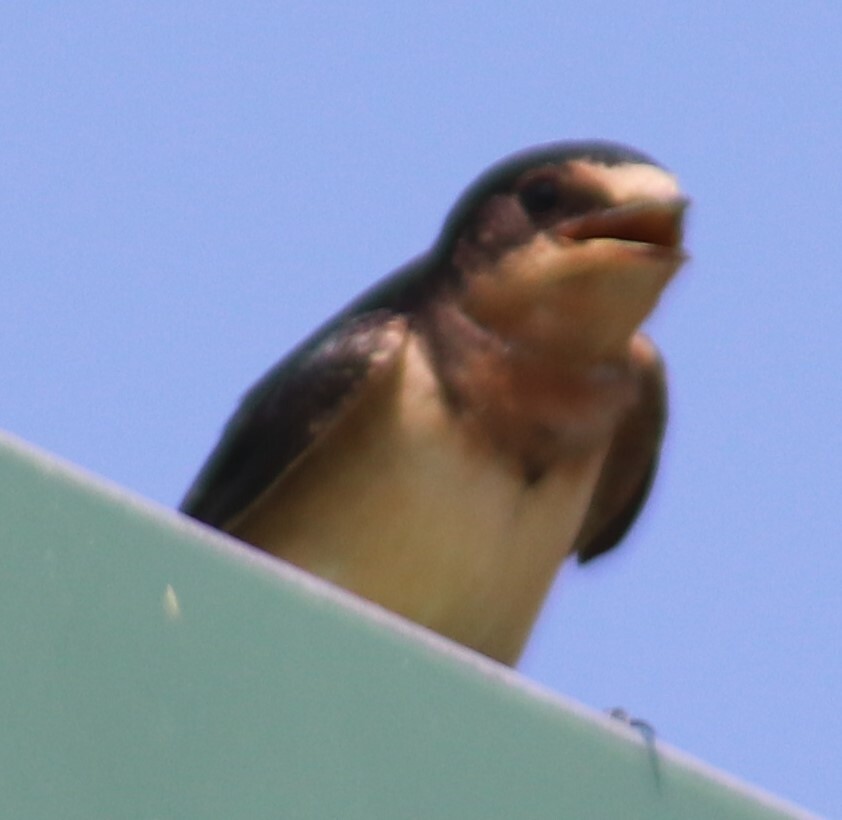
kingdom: Animalia
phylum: Chordata
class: Aves
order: Passeriformes
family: Hirundinidae
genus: Hirundo
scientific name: Hirundo rustica
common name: Barn swallow
